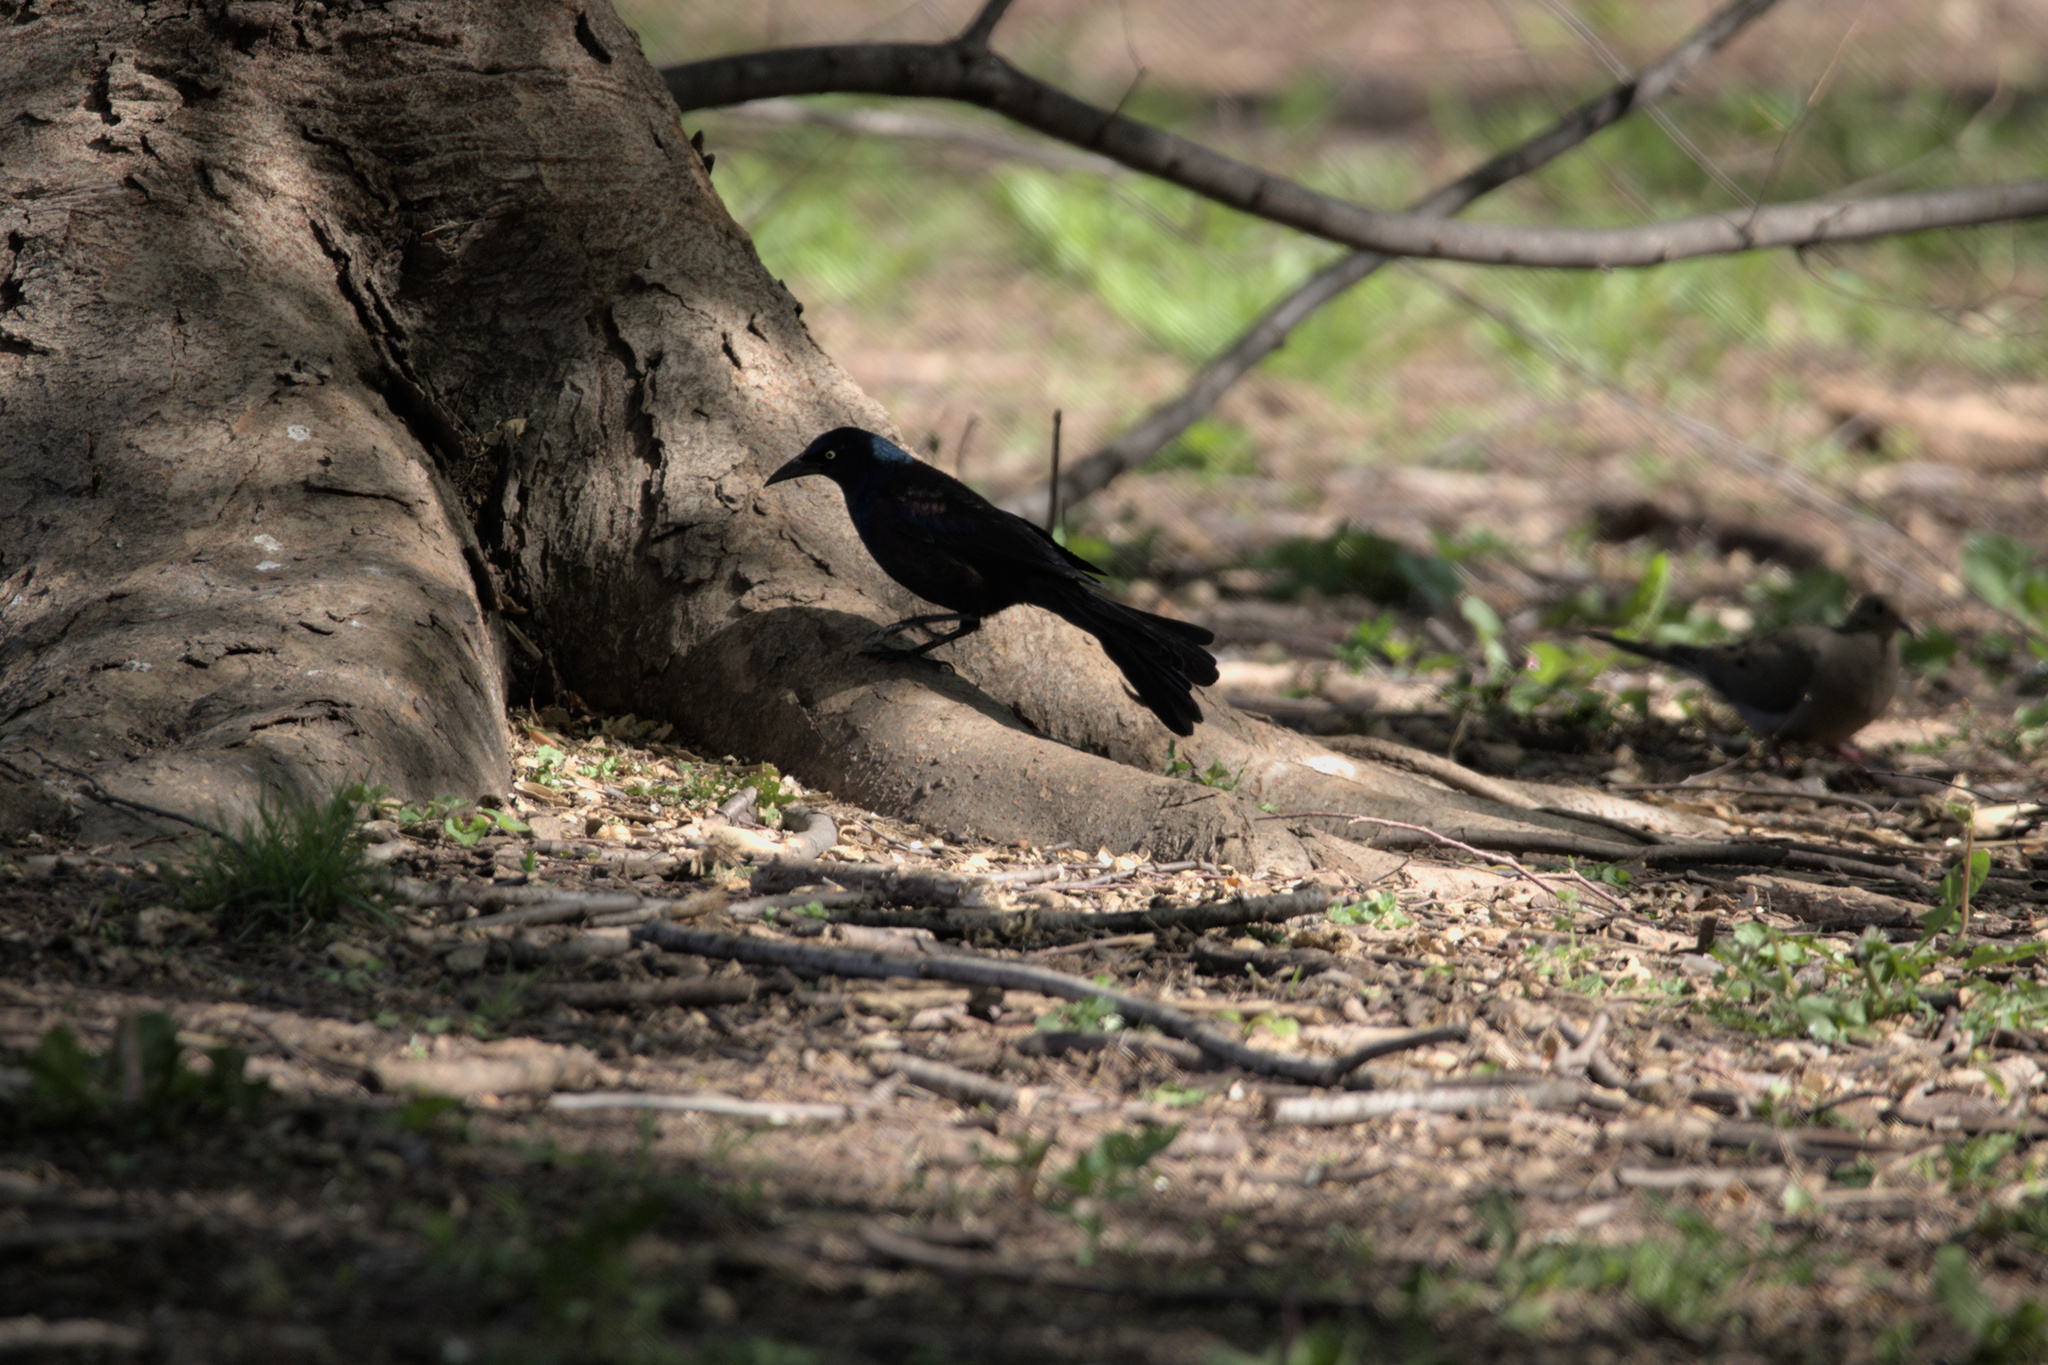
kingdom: Animalia
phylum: Chordata
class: Aves
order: Passeriformes
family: Icteridae
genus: Quiscalus
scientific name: Quiscalus quiscula
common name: Common grackle
